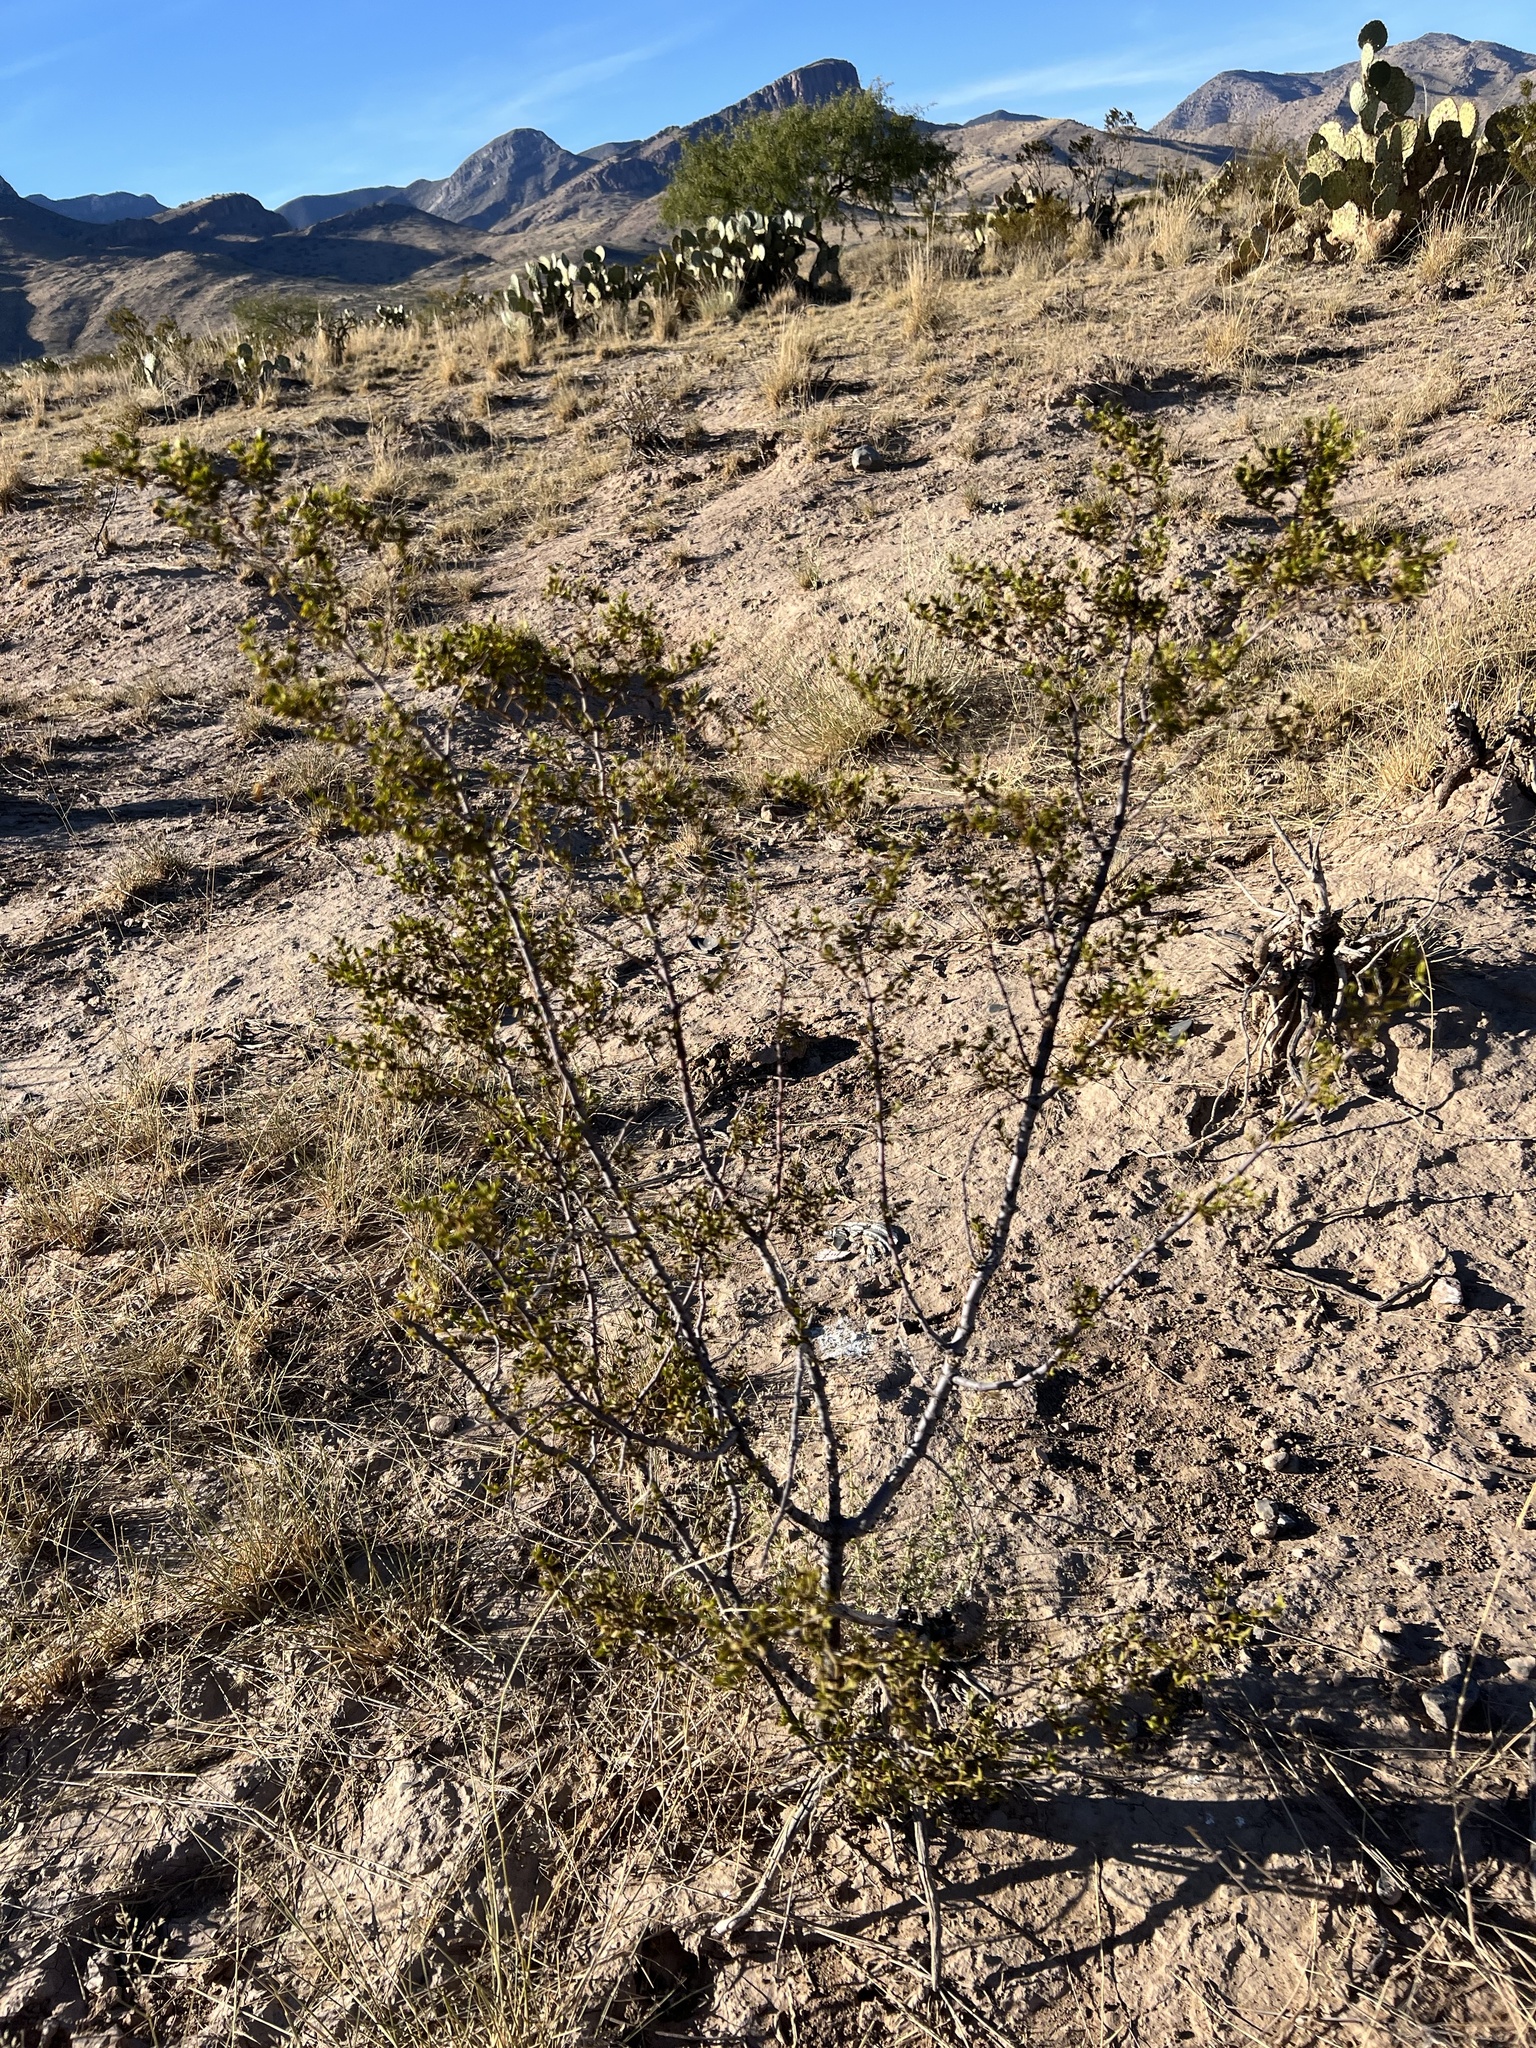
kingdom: Plantae
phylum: Tracheophyta
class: Magnoliopsida
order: Zygophyllales
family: Zygophyllaceae
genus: Larrea
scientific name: Larrea tridentata
